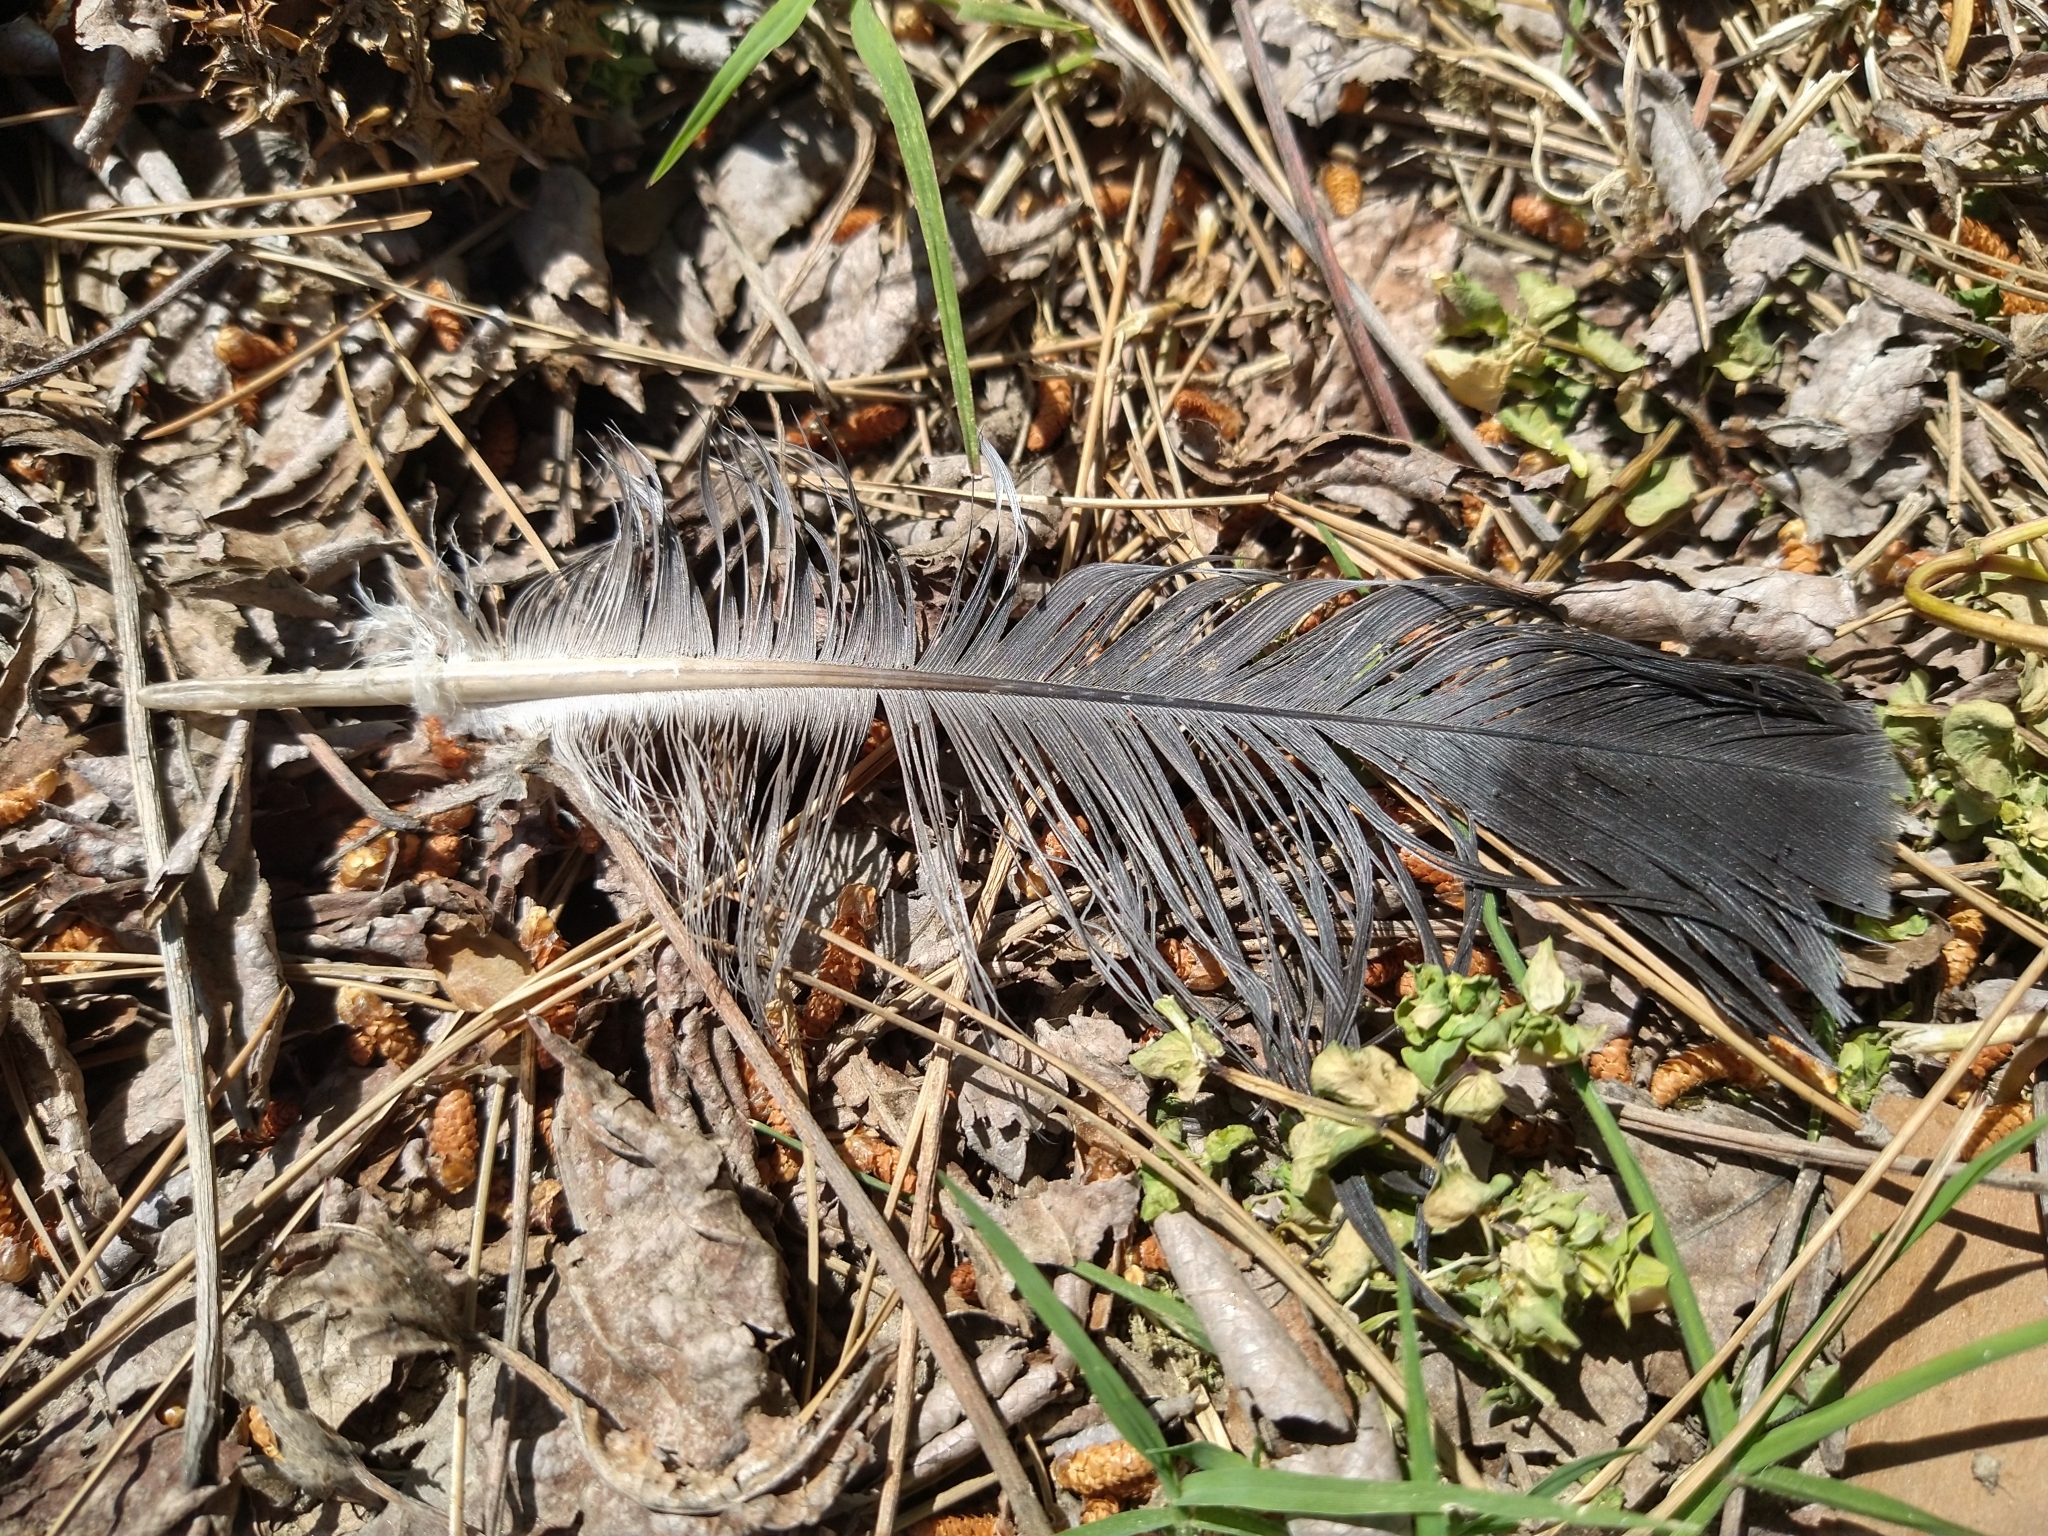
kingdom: Animalia
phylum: Chordata
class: Aves
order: Columbiformes
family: Columbidae
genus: Columba
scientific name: Columba livia
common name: Rock pigeon
